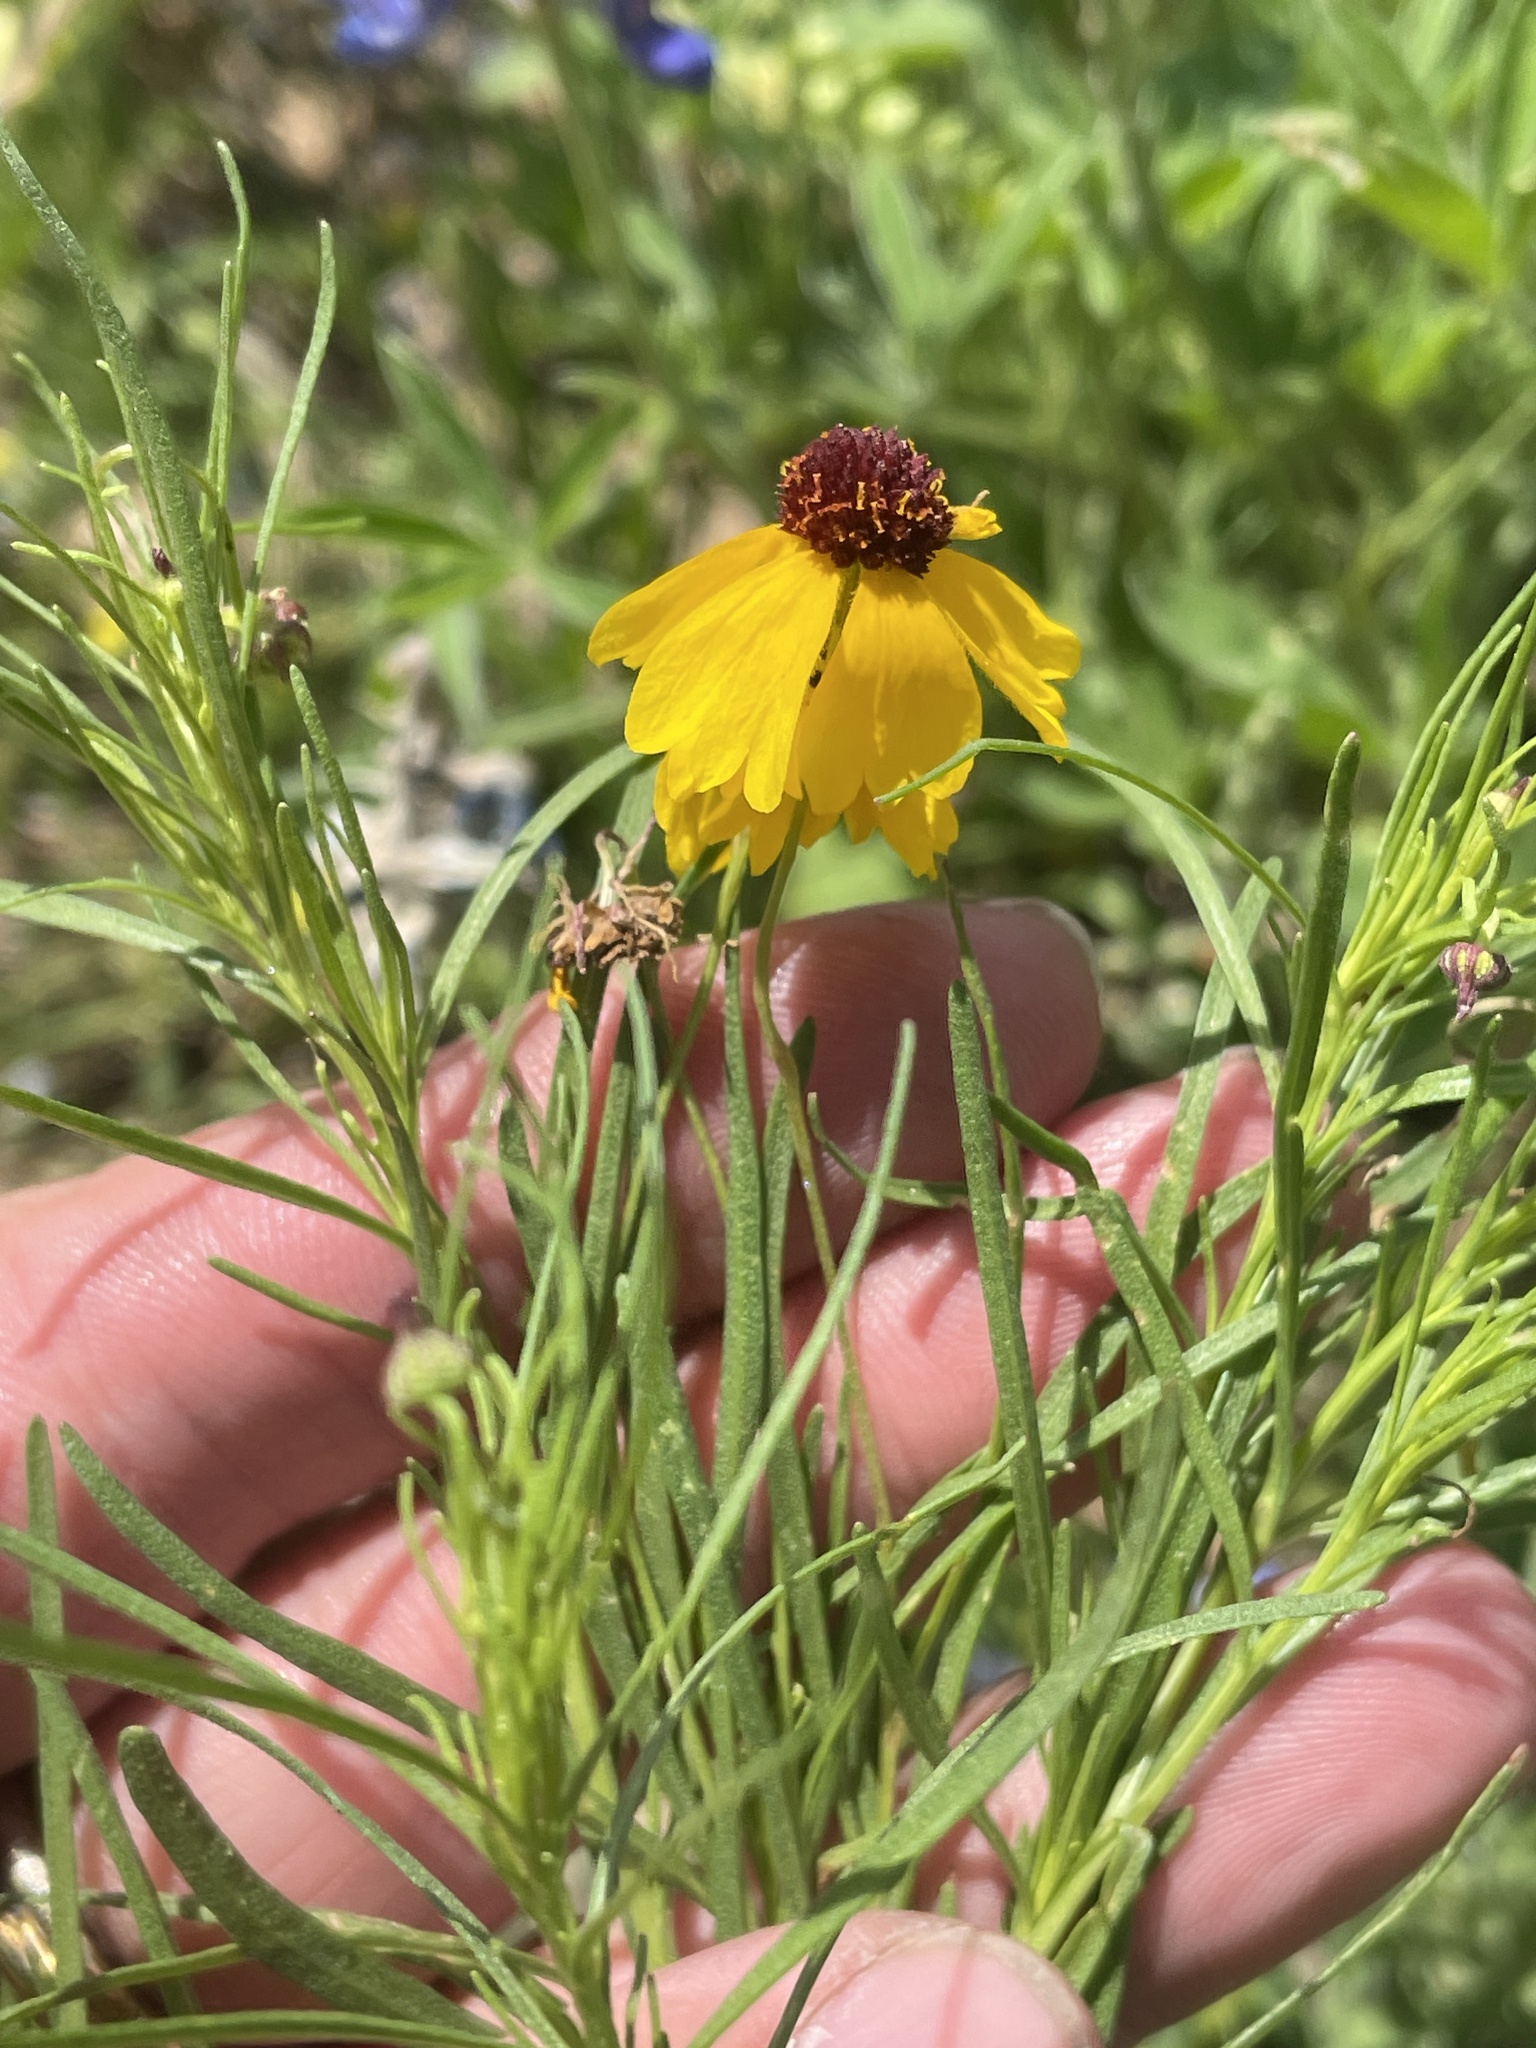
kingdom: Plantae
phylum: Tracheophyta
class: Magnoliopsida
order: Asterales
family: Asteraceae
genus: Helenium
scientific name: Helenium amarum
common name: Bitter sneezeweed
